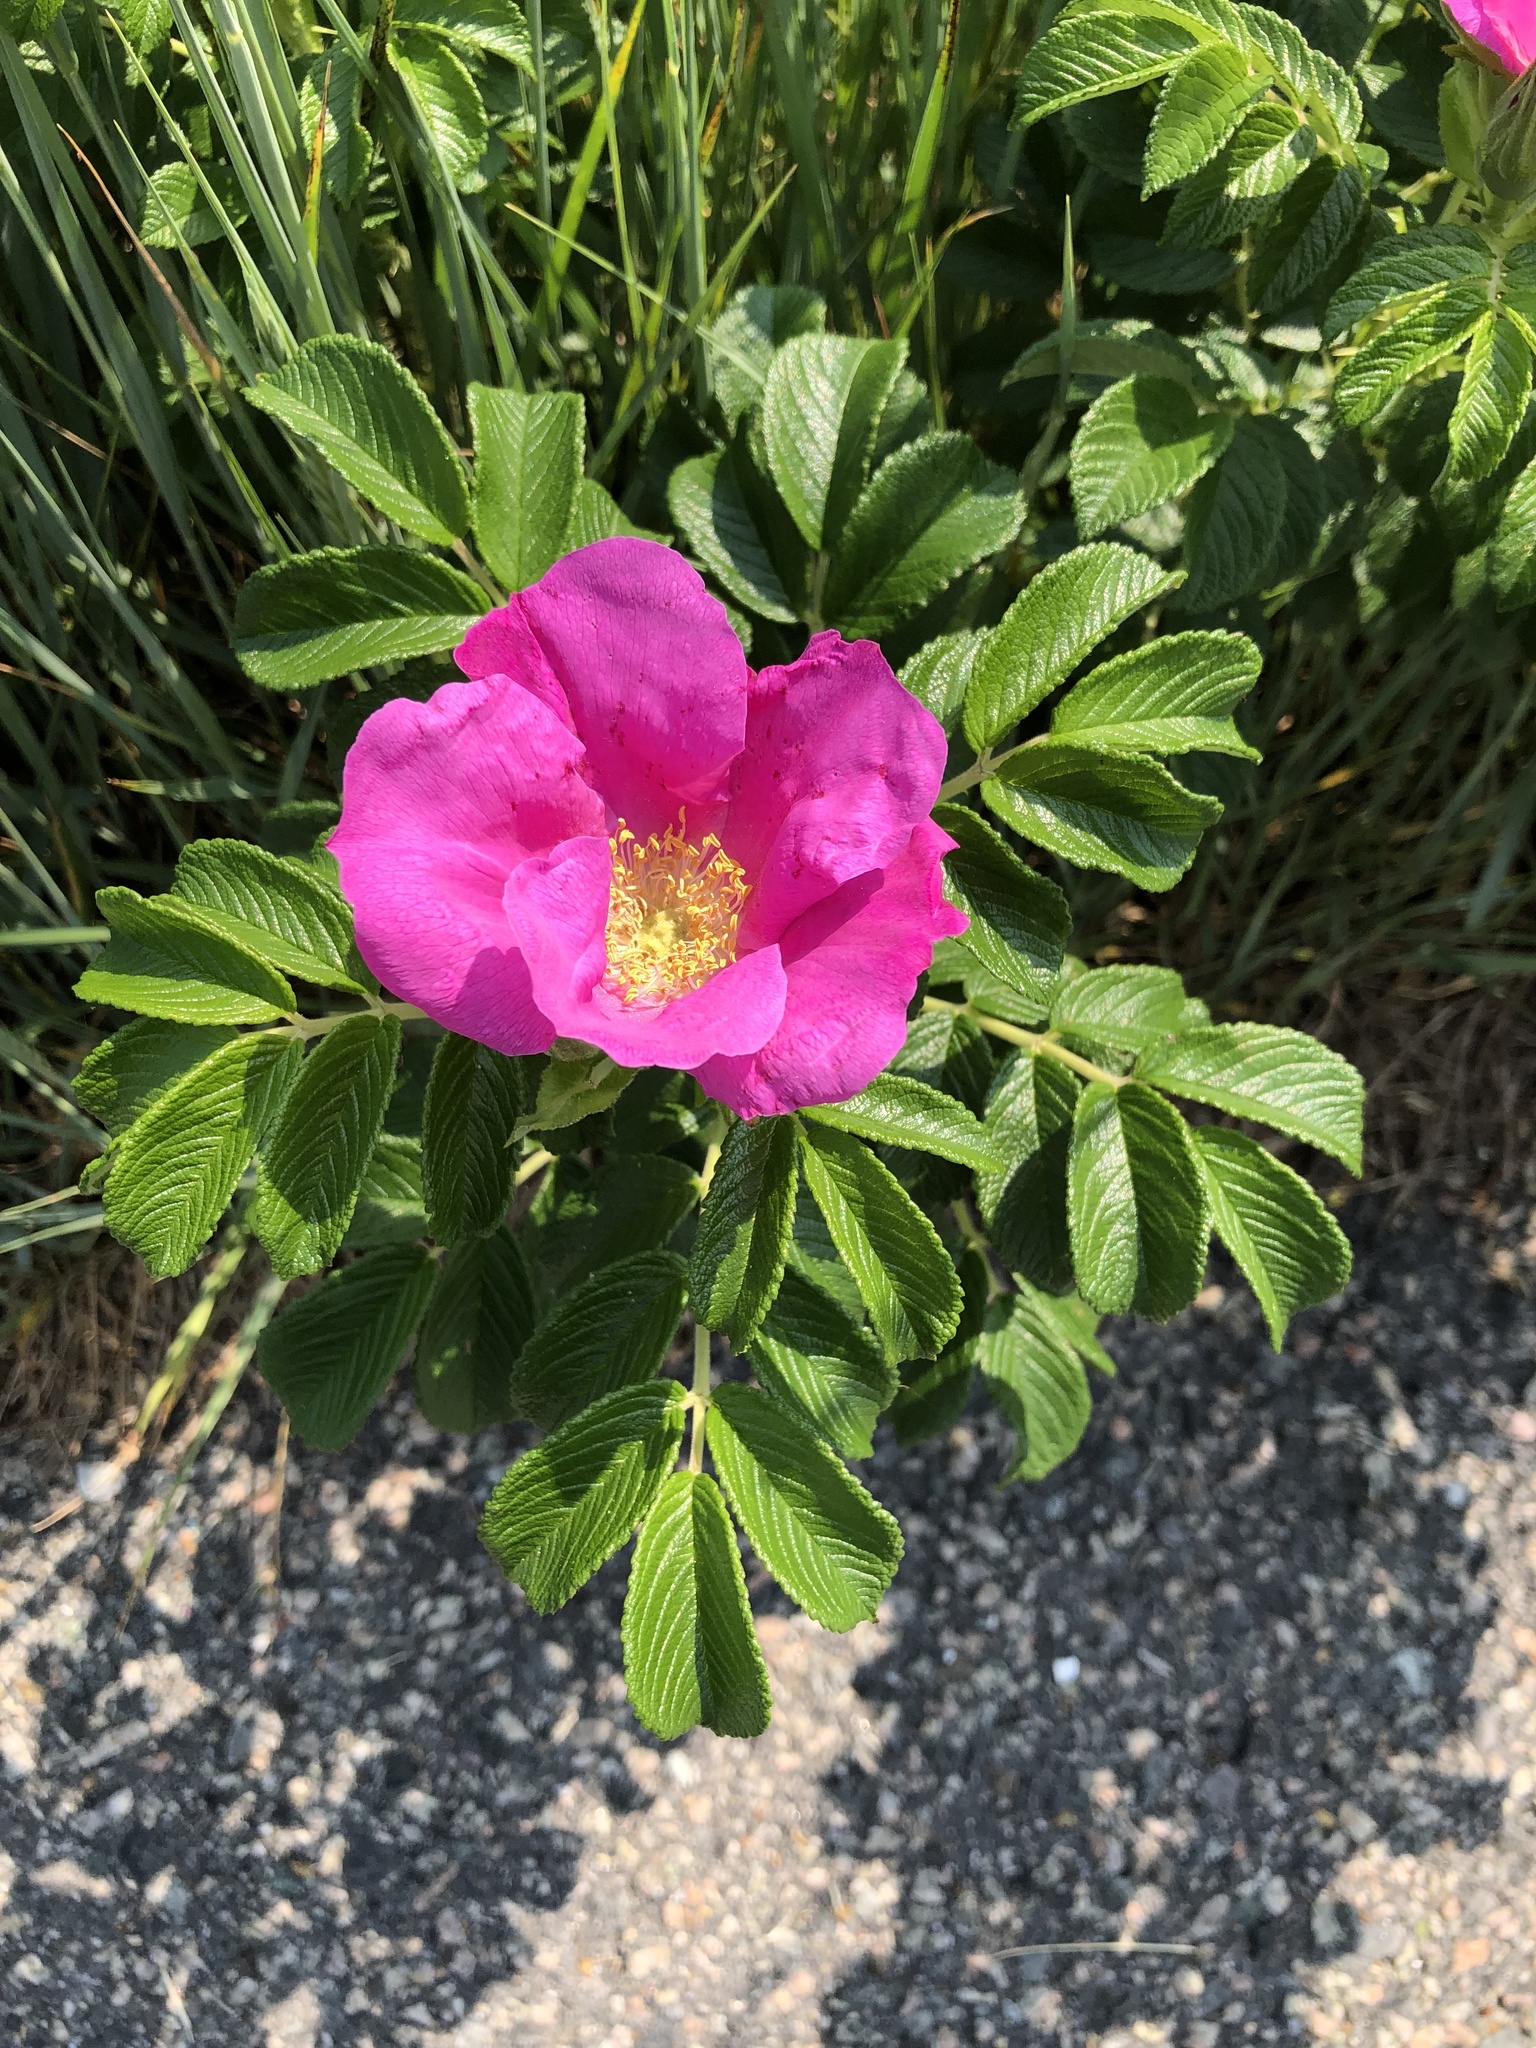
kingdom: Plantae
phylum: Tracheophyta
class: Magnoliopsida
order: Rosales
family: Rosaceae
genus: Rosa
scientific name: Rosa rugosa
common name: Japanese rose
